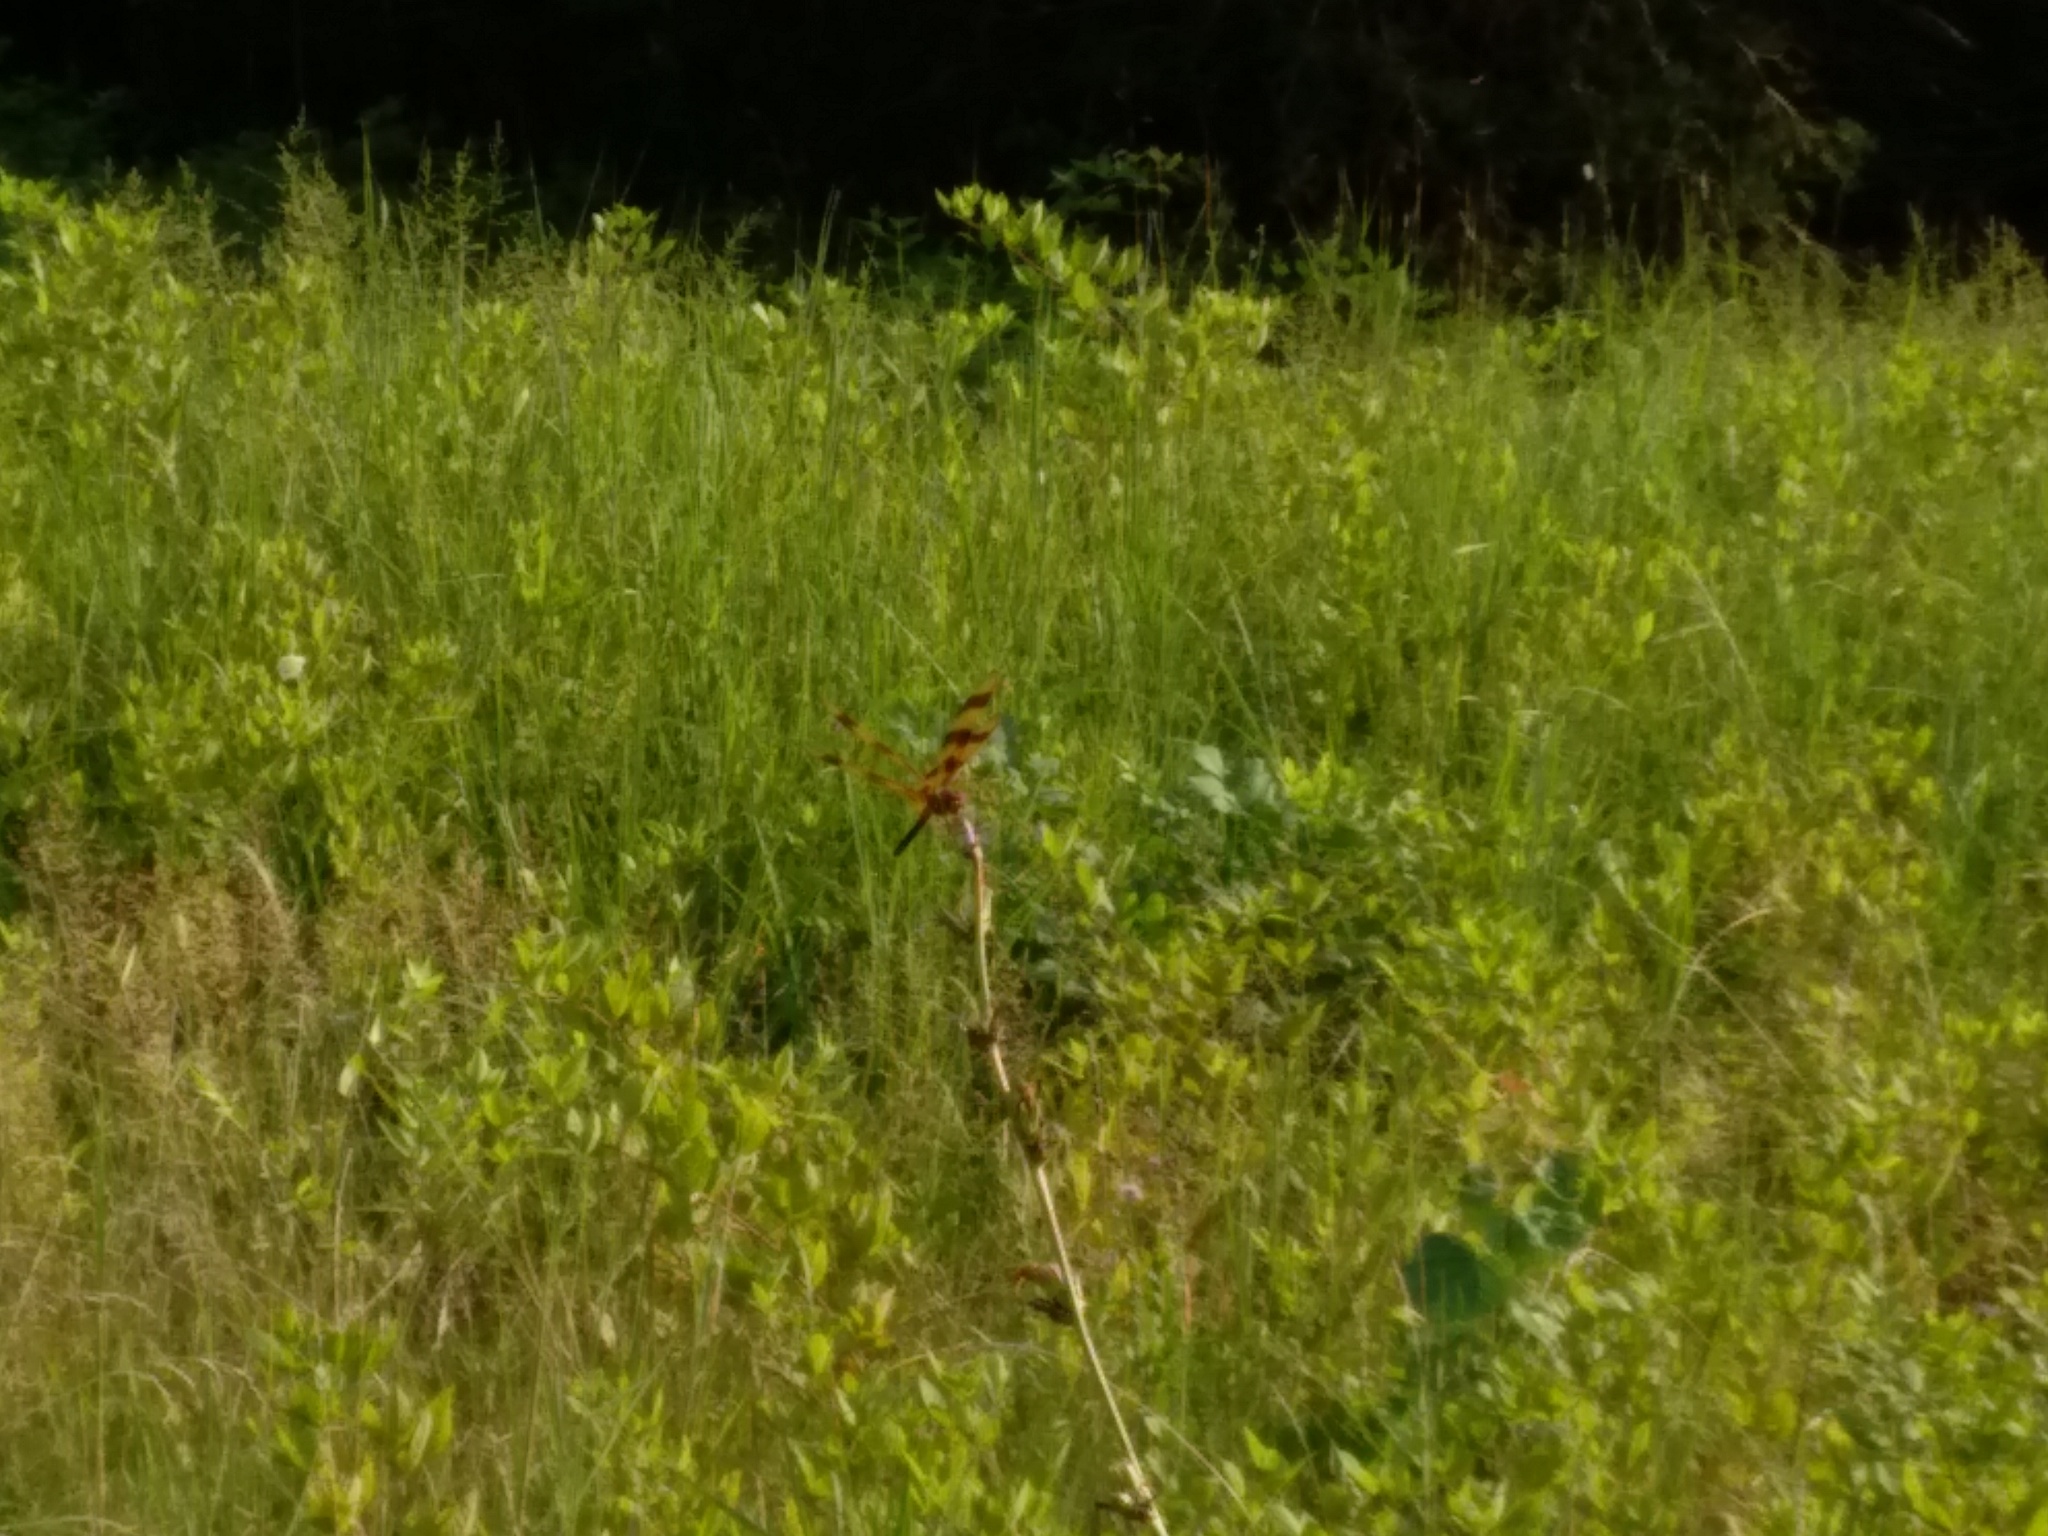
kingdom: Animalia
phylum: Arthropoda
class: Insecta
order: Odonata
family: Libellulidae
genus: Celithemis
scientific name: Celithemis eponina
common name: Halloween pennant
